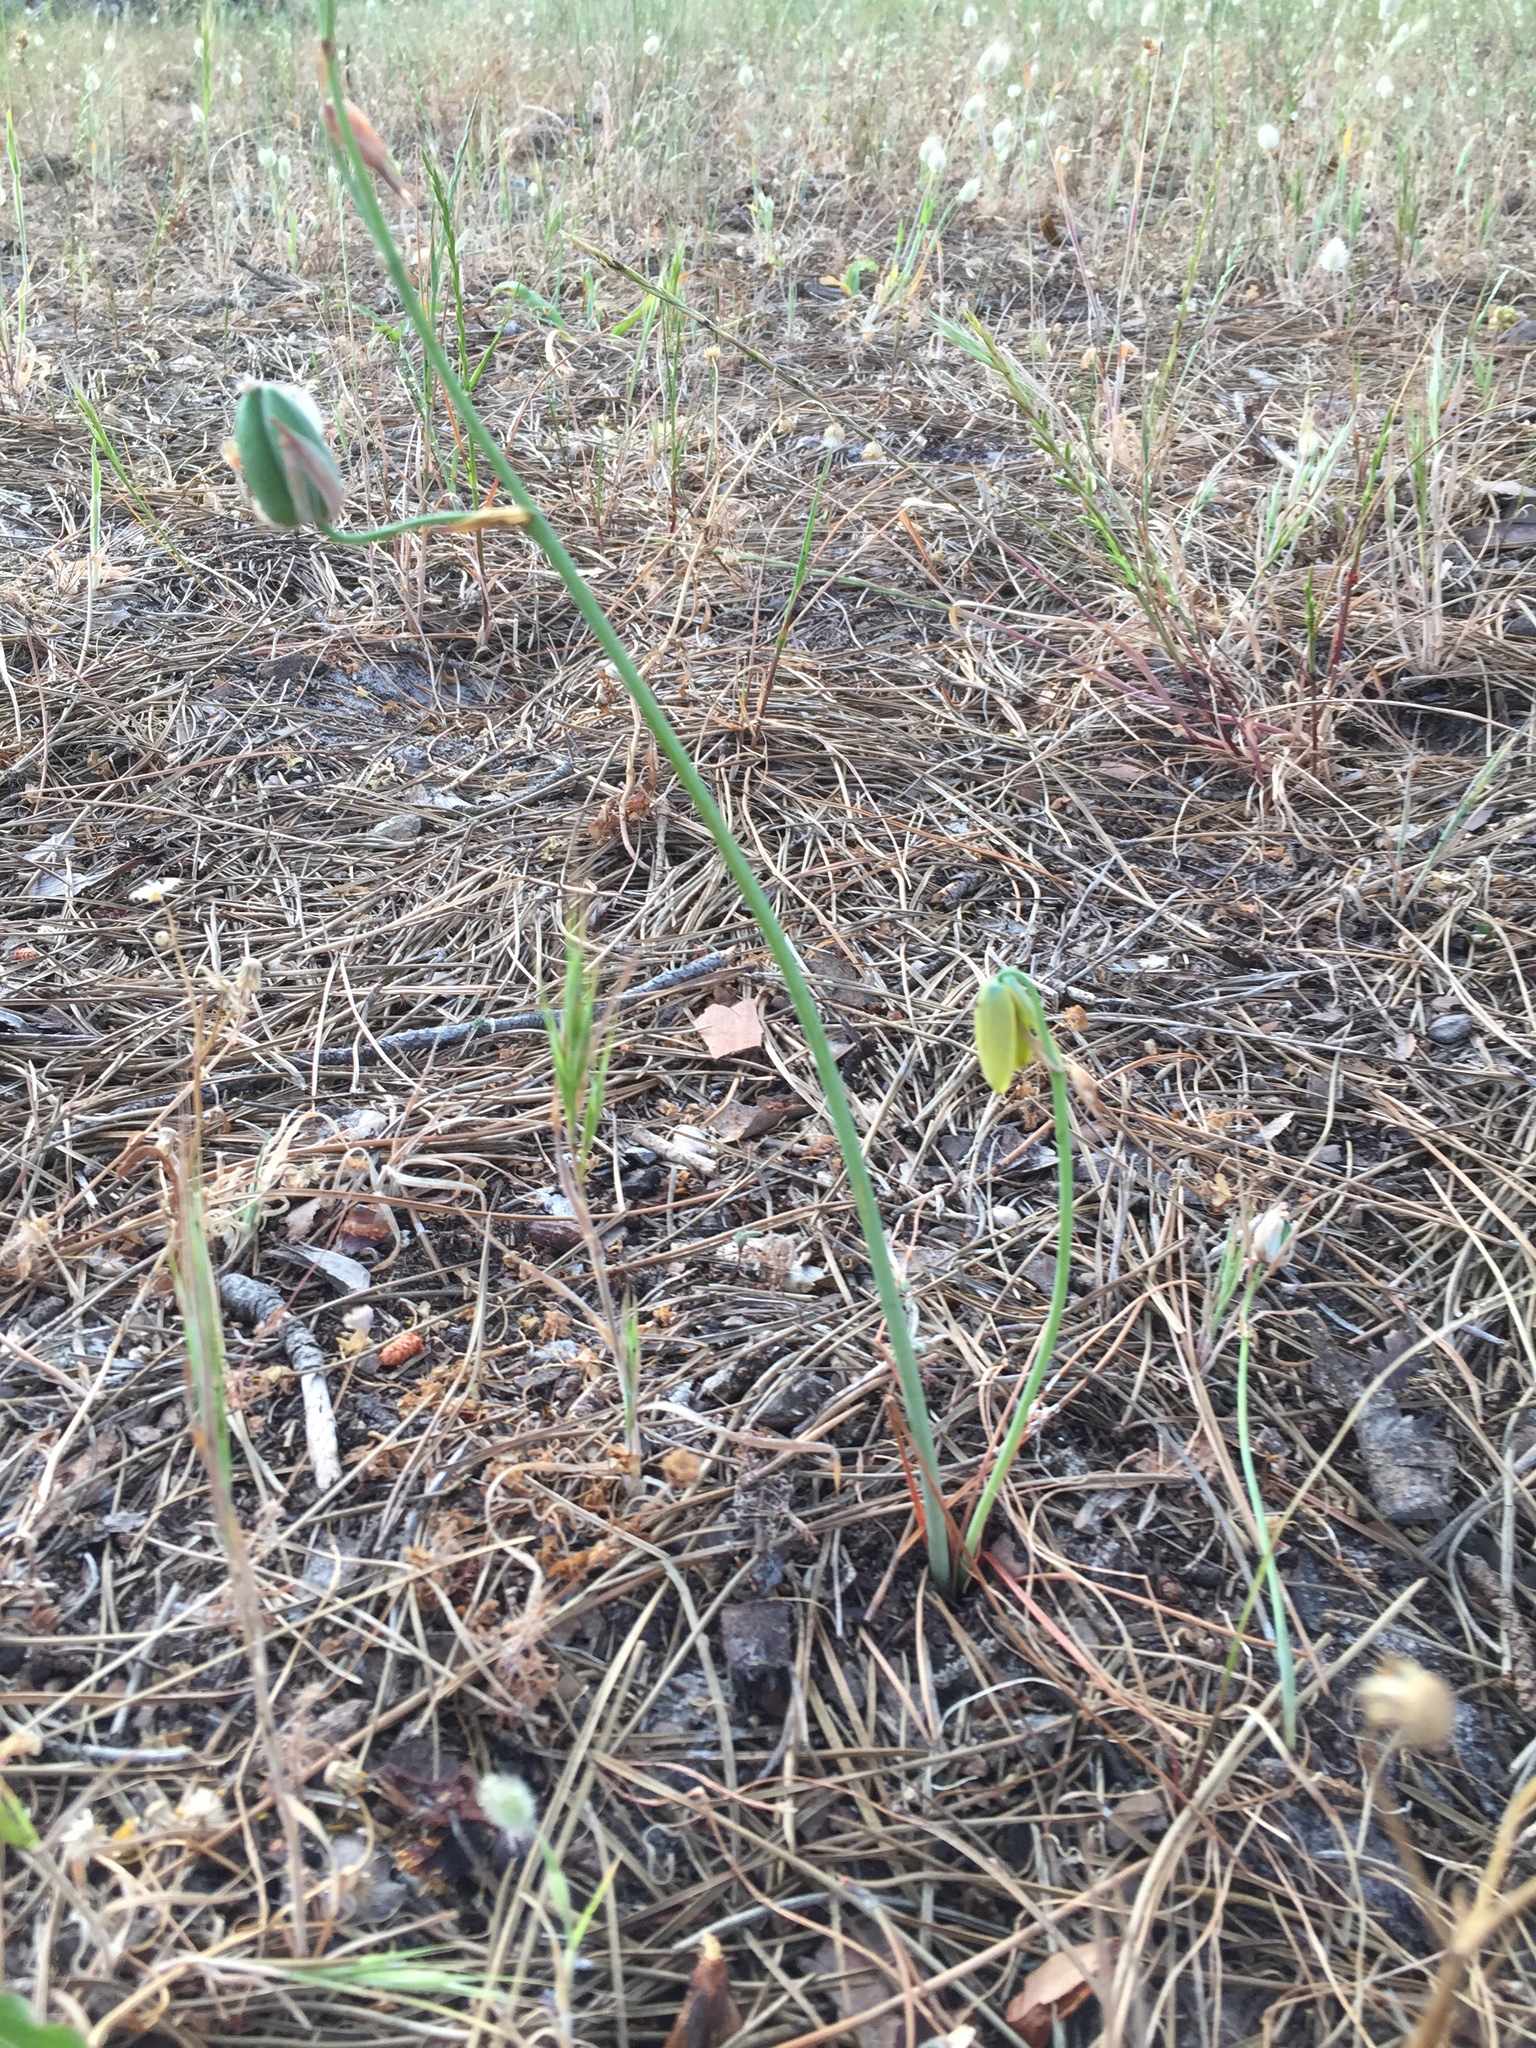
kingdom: Plantae
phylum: Tracheophyta
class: Liliopsida
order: Asparagales
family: Asparagaceae
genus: Albuca
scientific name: Albuca cooperi
